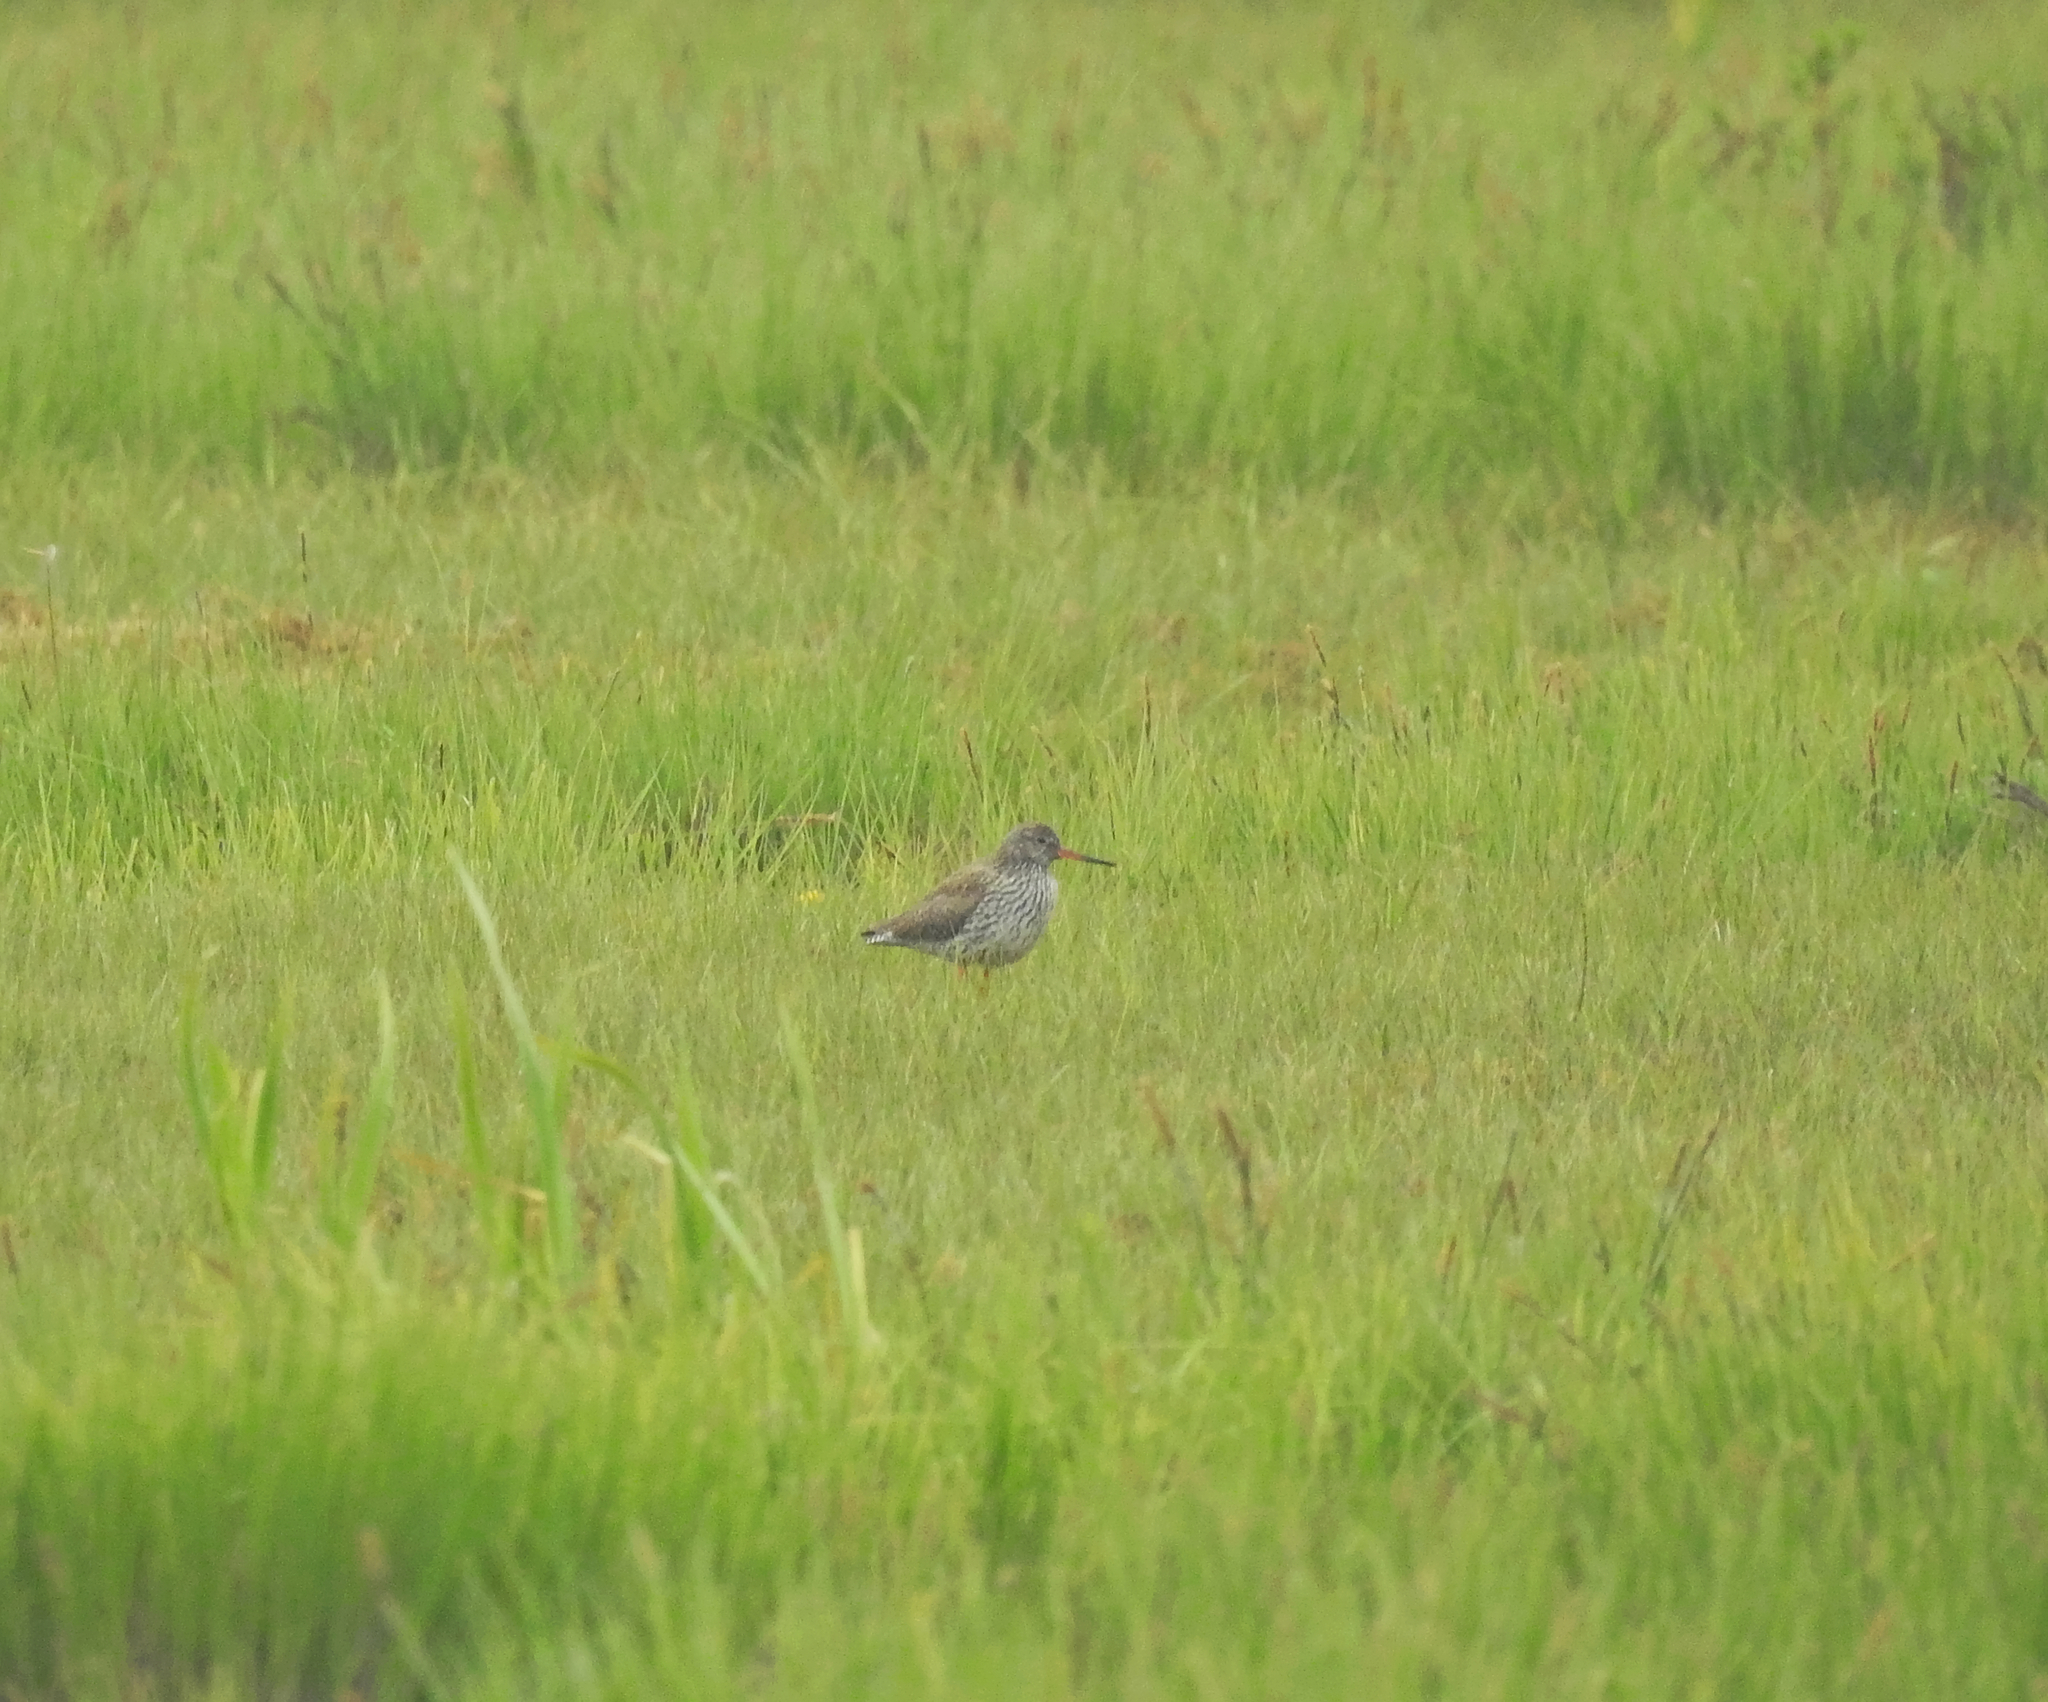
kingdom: Animalia
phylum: Chordata
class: Aves
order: Charadriiformes
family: Scolopacidae
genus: Tringa
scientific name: Tringa totanus
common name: Common redshank
